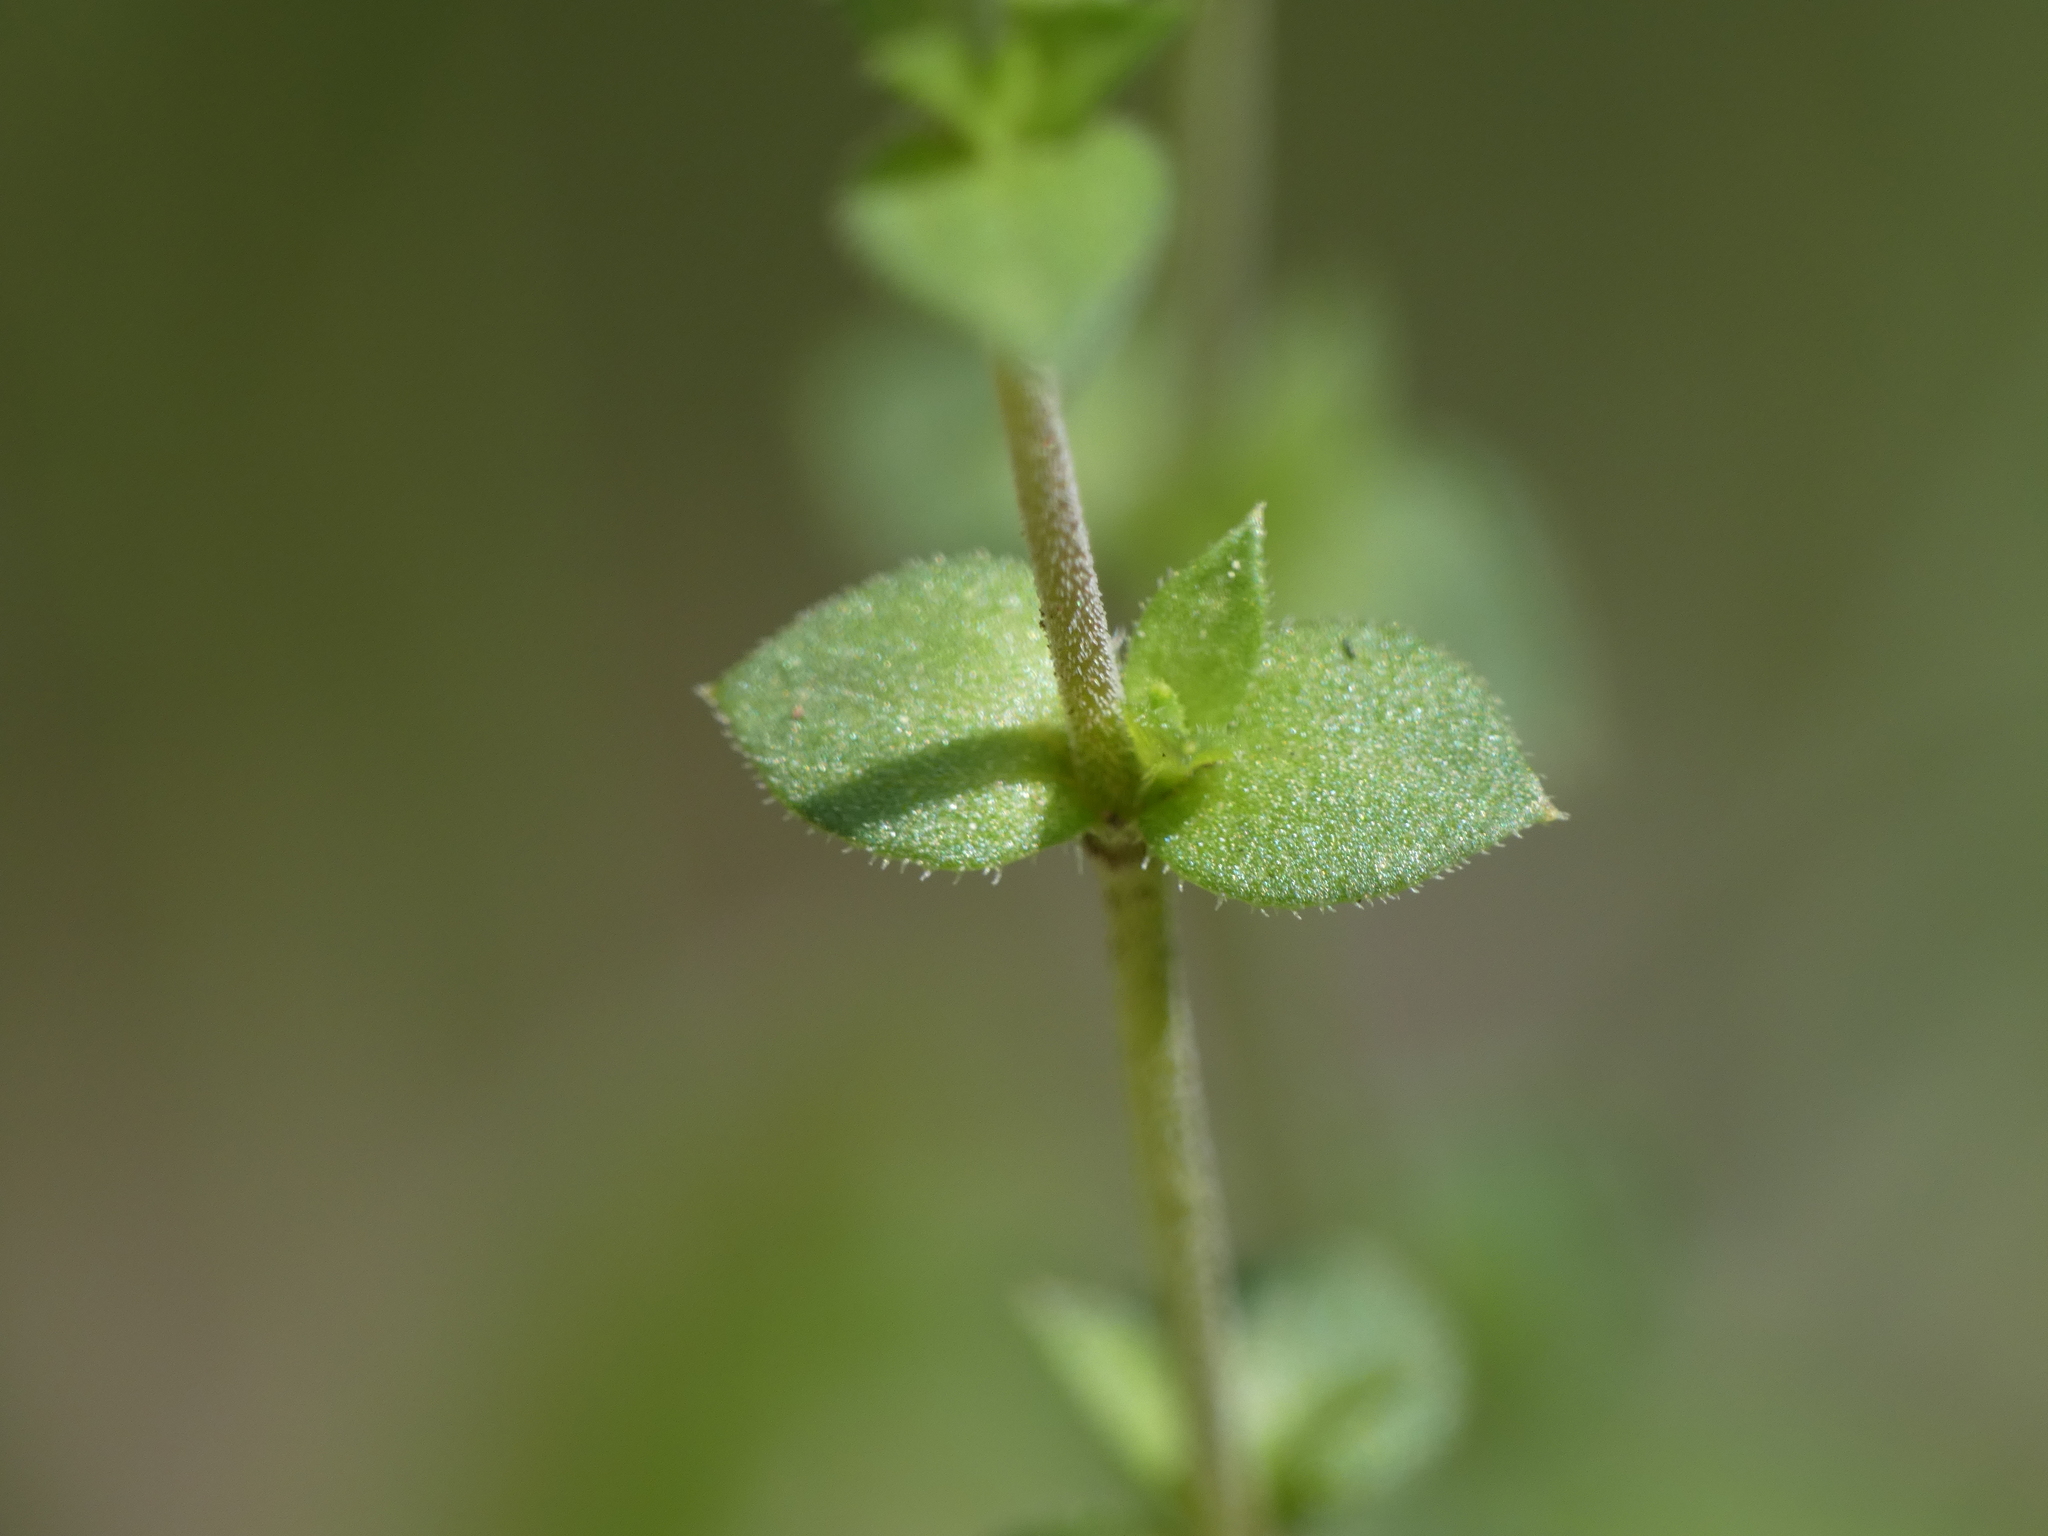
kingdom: Plantae
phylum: Tracheophyta
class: Magnoliopsida
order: Caryophyllales
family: Caryophyllaceae
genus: Arenaria
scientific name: Arenaria serpyllifolia
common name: Thyme-leaved sandwort
